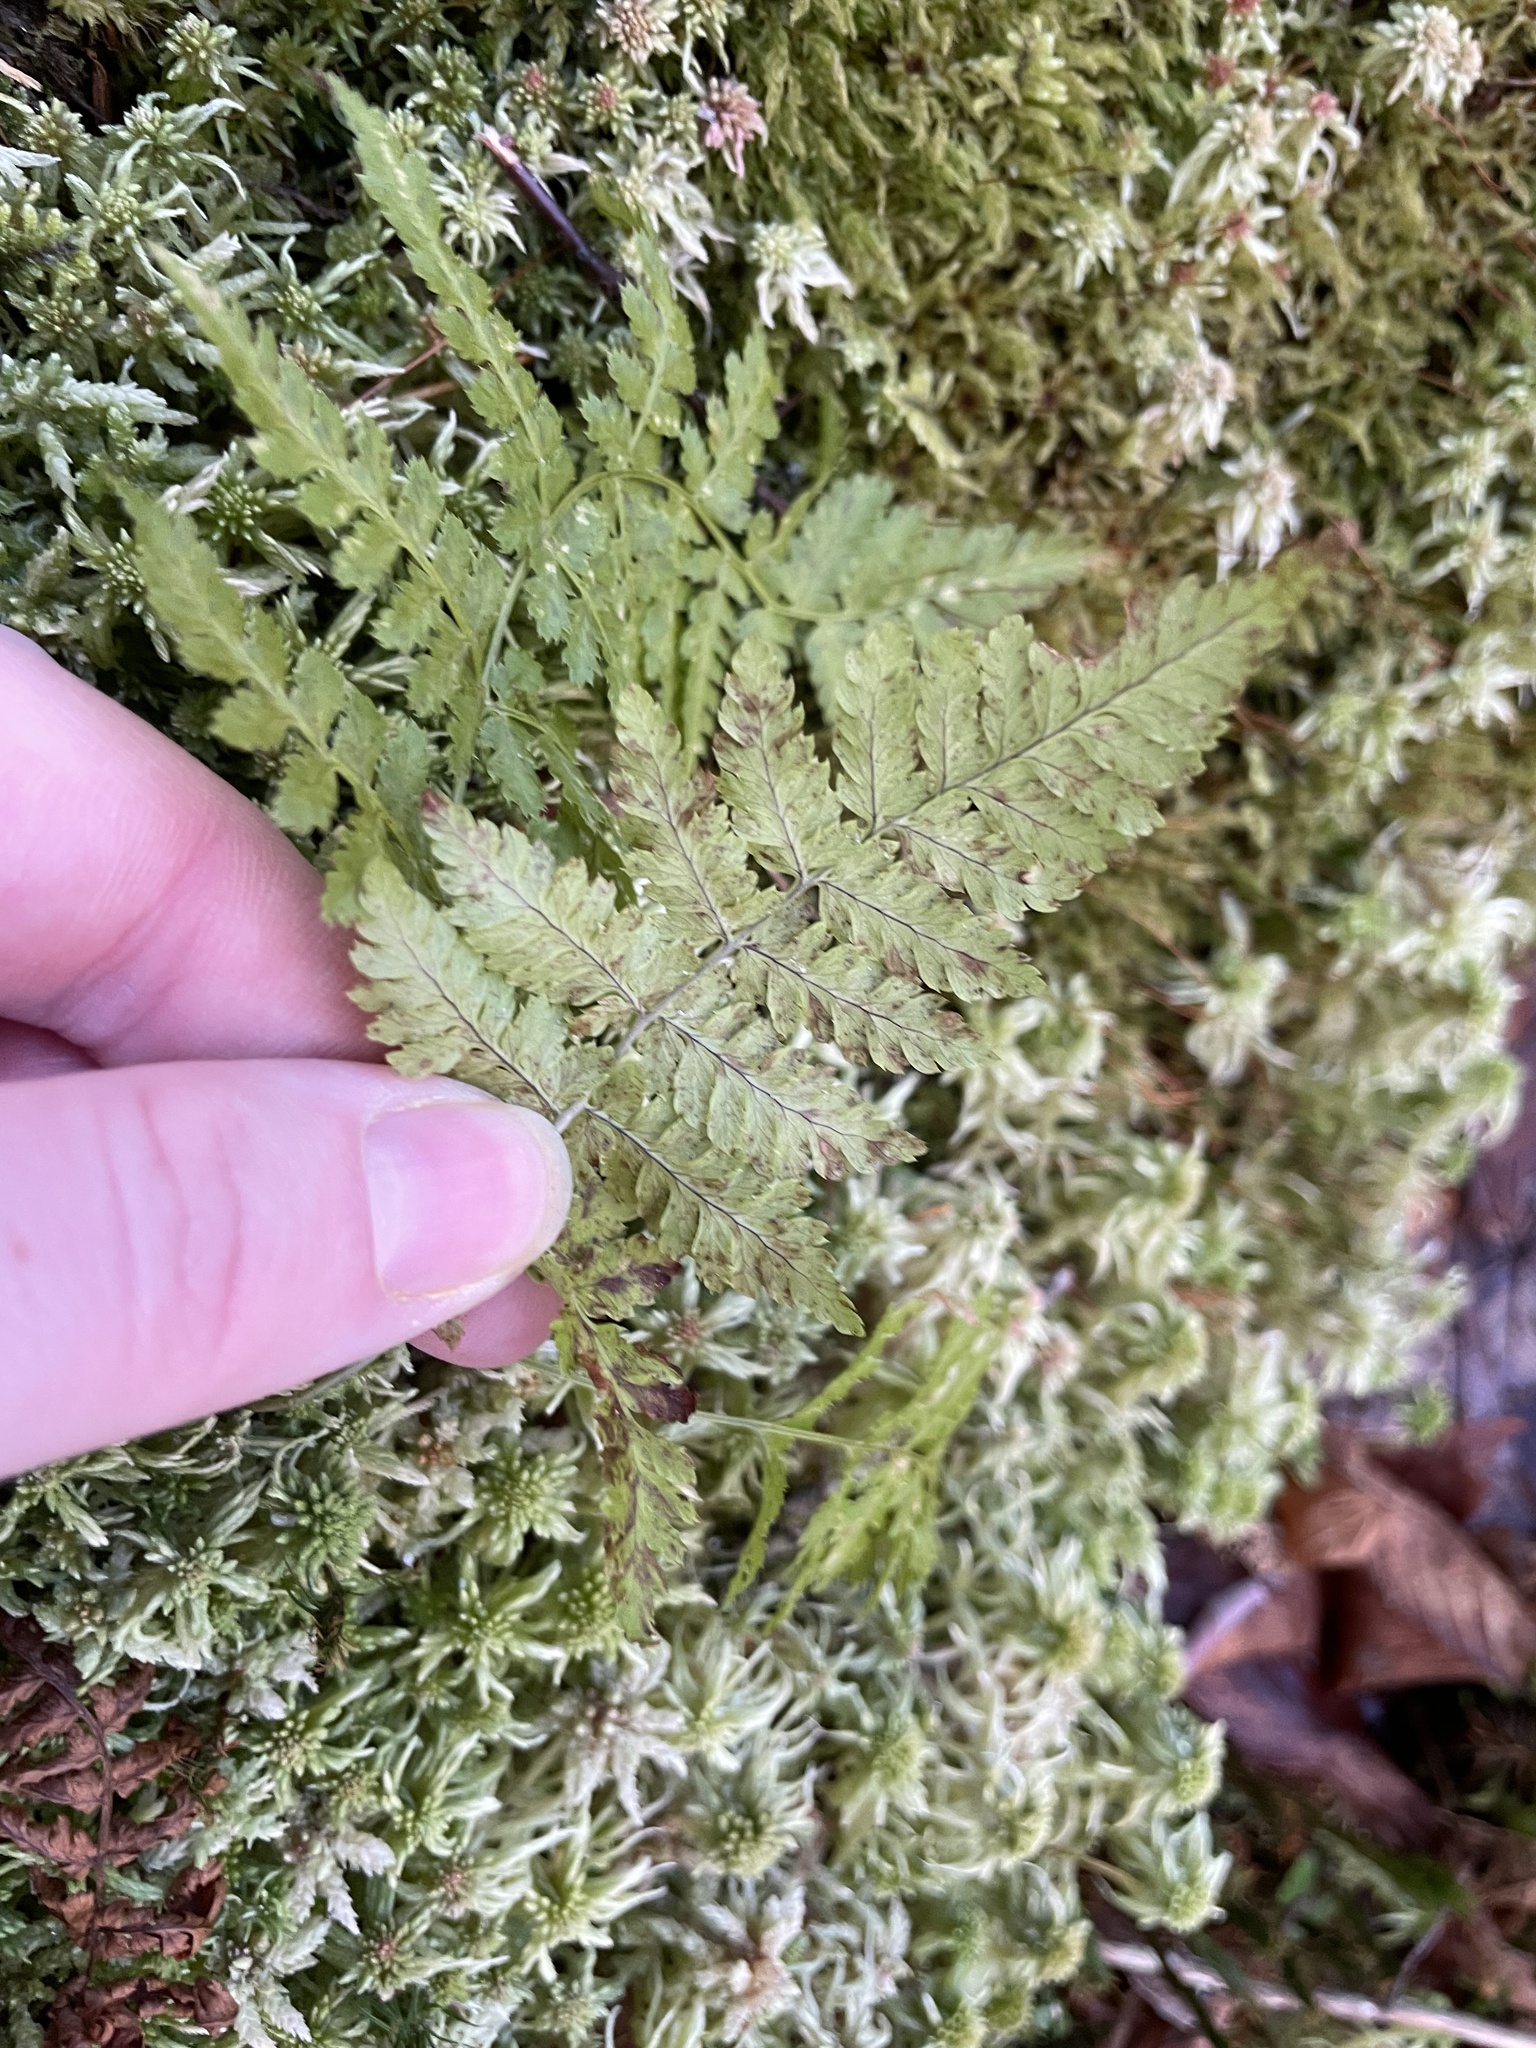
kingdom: Plantae
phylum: Tracheophyta
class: Polypodiopsida
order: Polypodiales
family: Dryopteridaceae
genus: Dryopteris
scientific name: Dryopteris intermedia
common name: Evergreen wood fern
